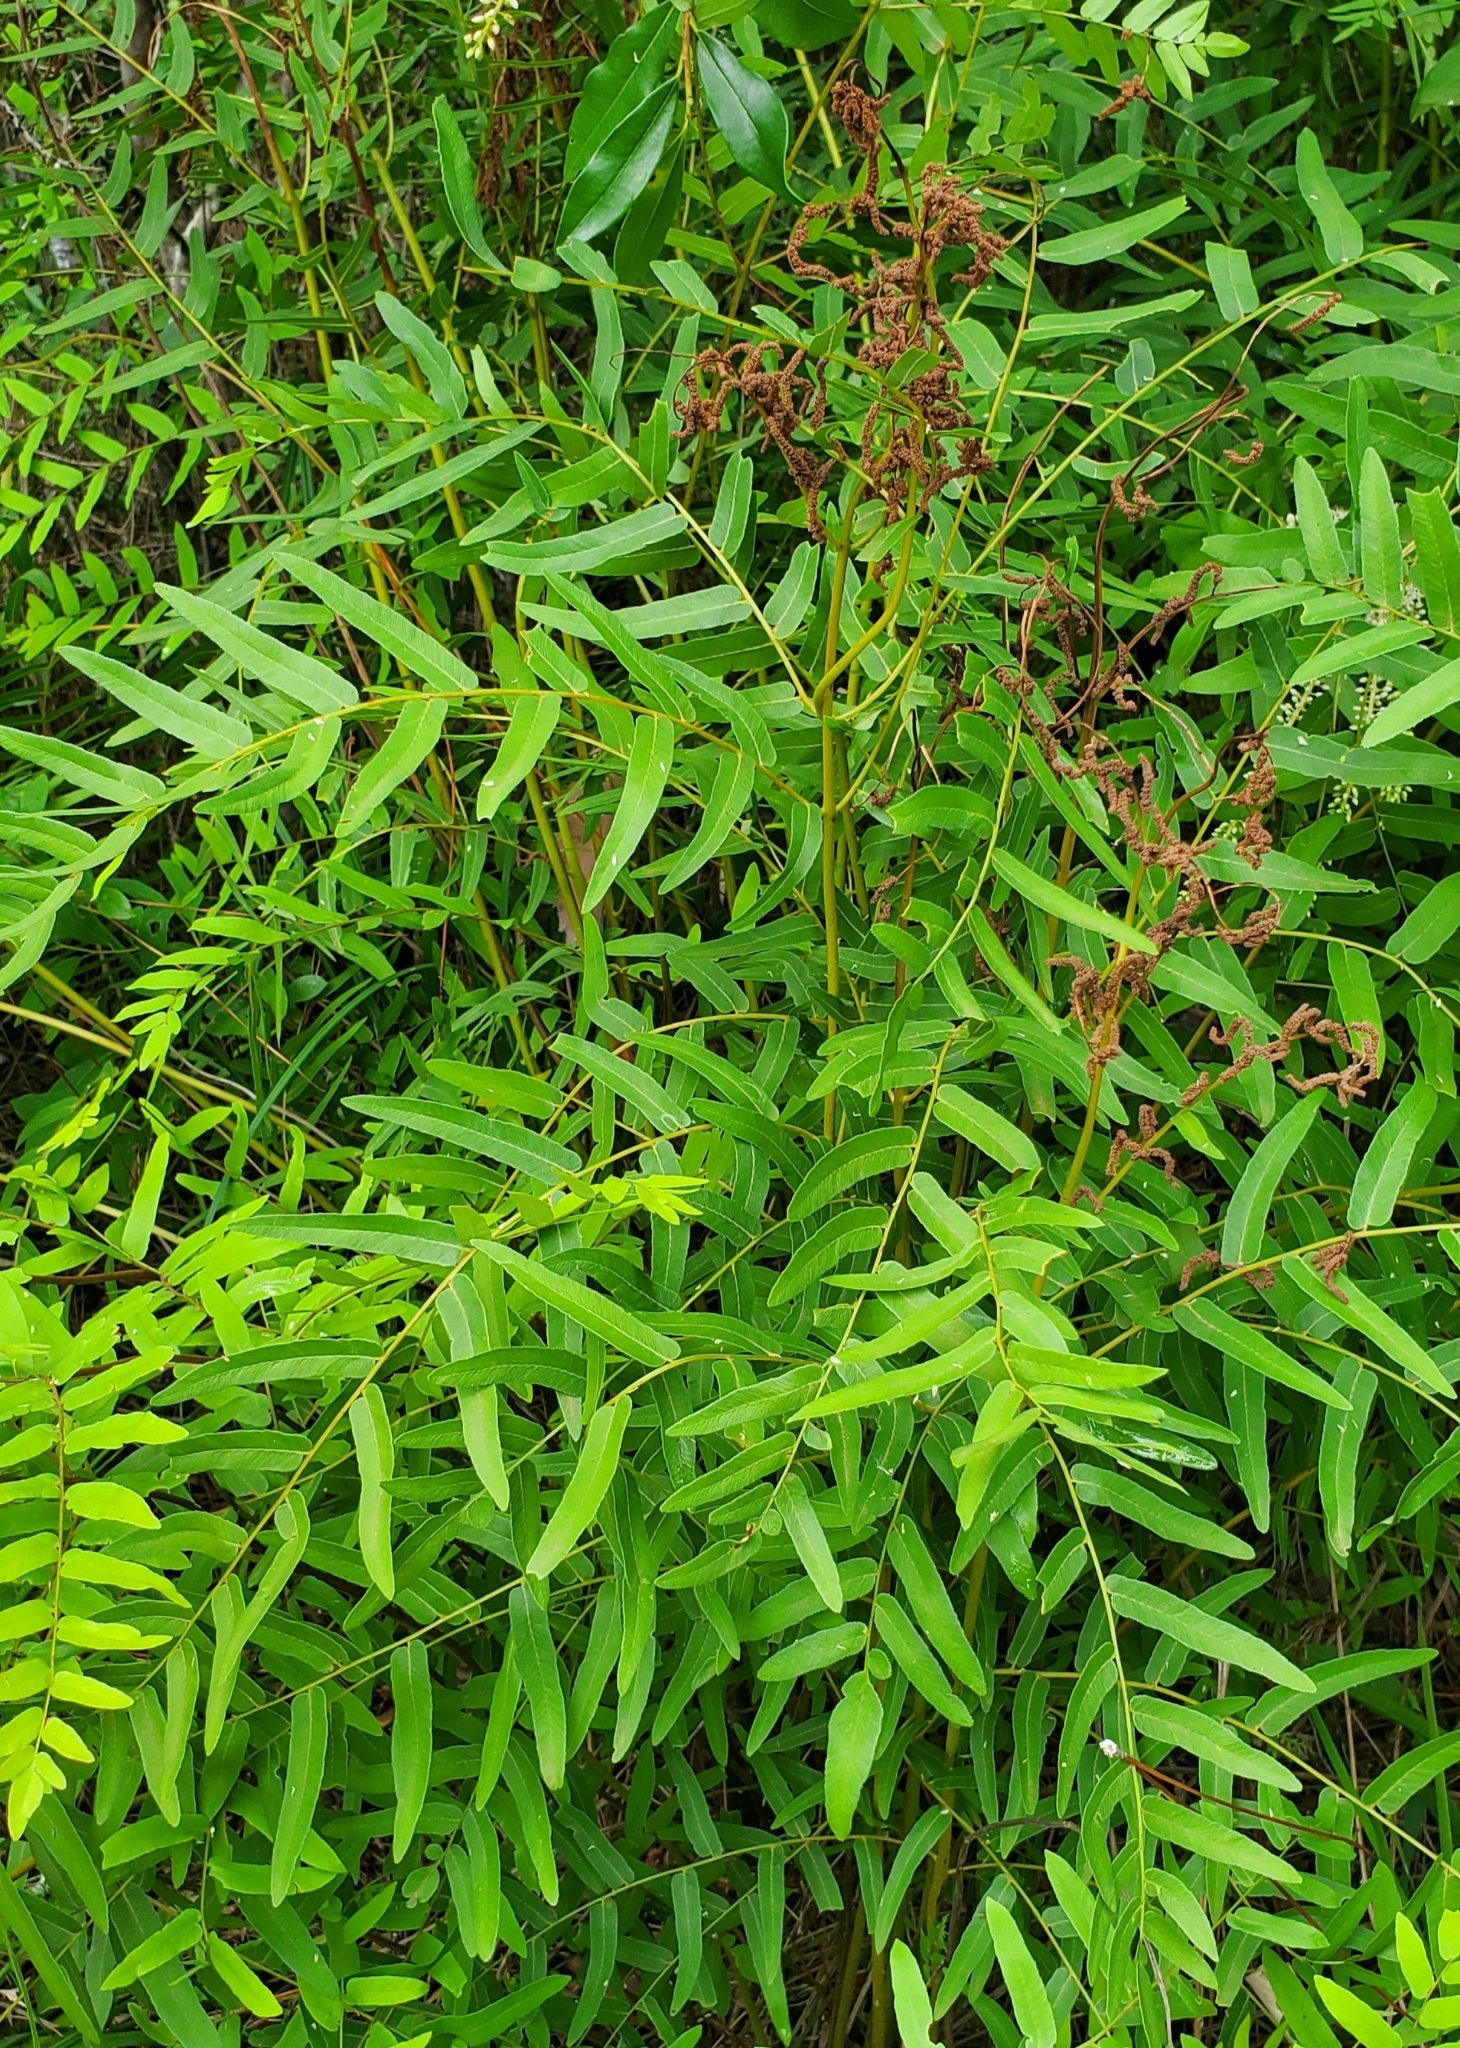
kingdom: Plantae
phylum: Tracheophyta
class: Polypodiopsida
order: Osmundales
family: Osmundaceae
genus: Osmunda
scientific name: Osmunda spectabilis
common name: American royal fern
